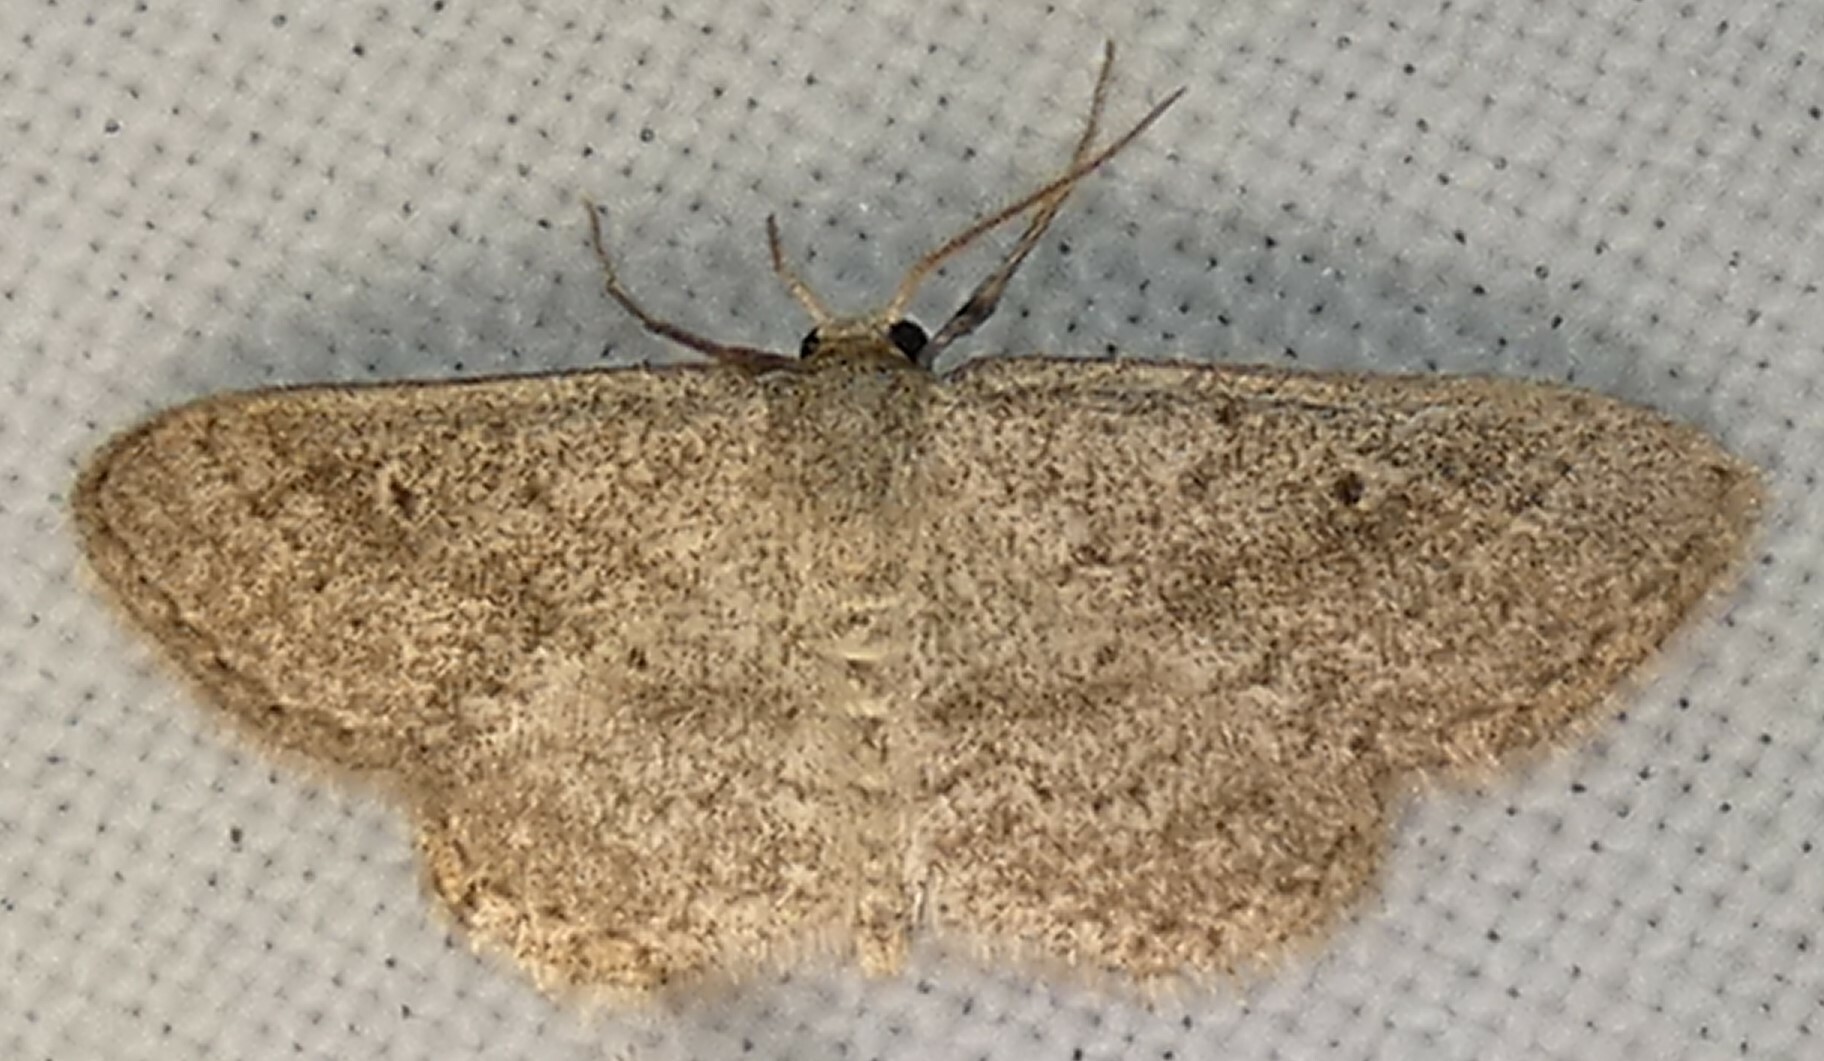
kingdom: Animalia
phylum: Arthropoda
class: Insecta
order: Lepidoptera
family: Geometridae
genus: Lobocleta
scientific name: Lobocleta ossularia
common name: Drab brown wave
